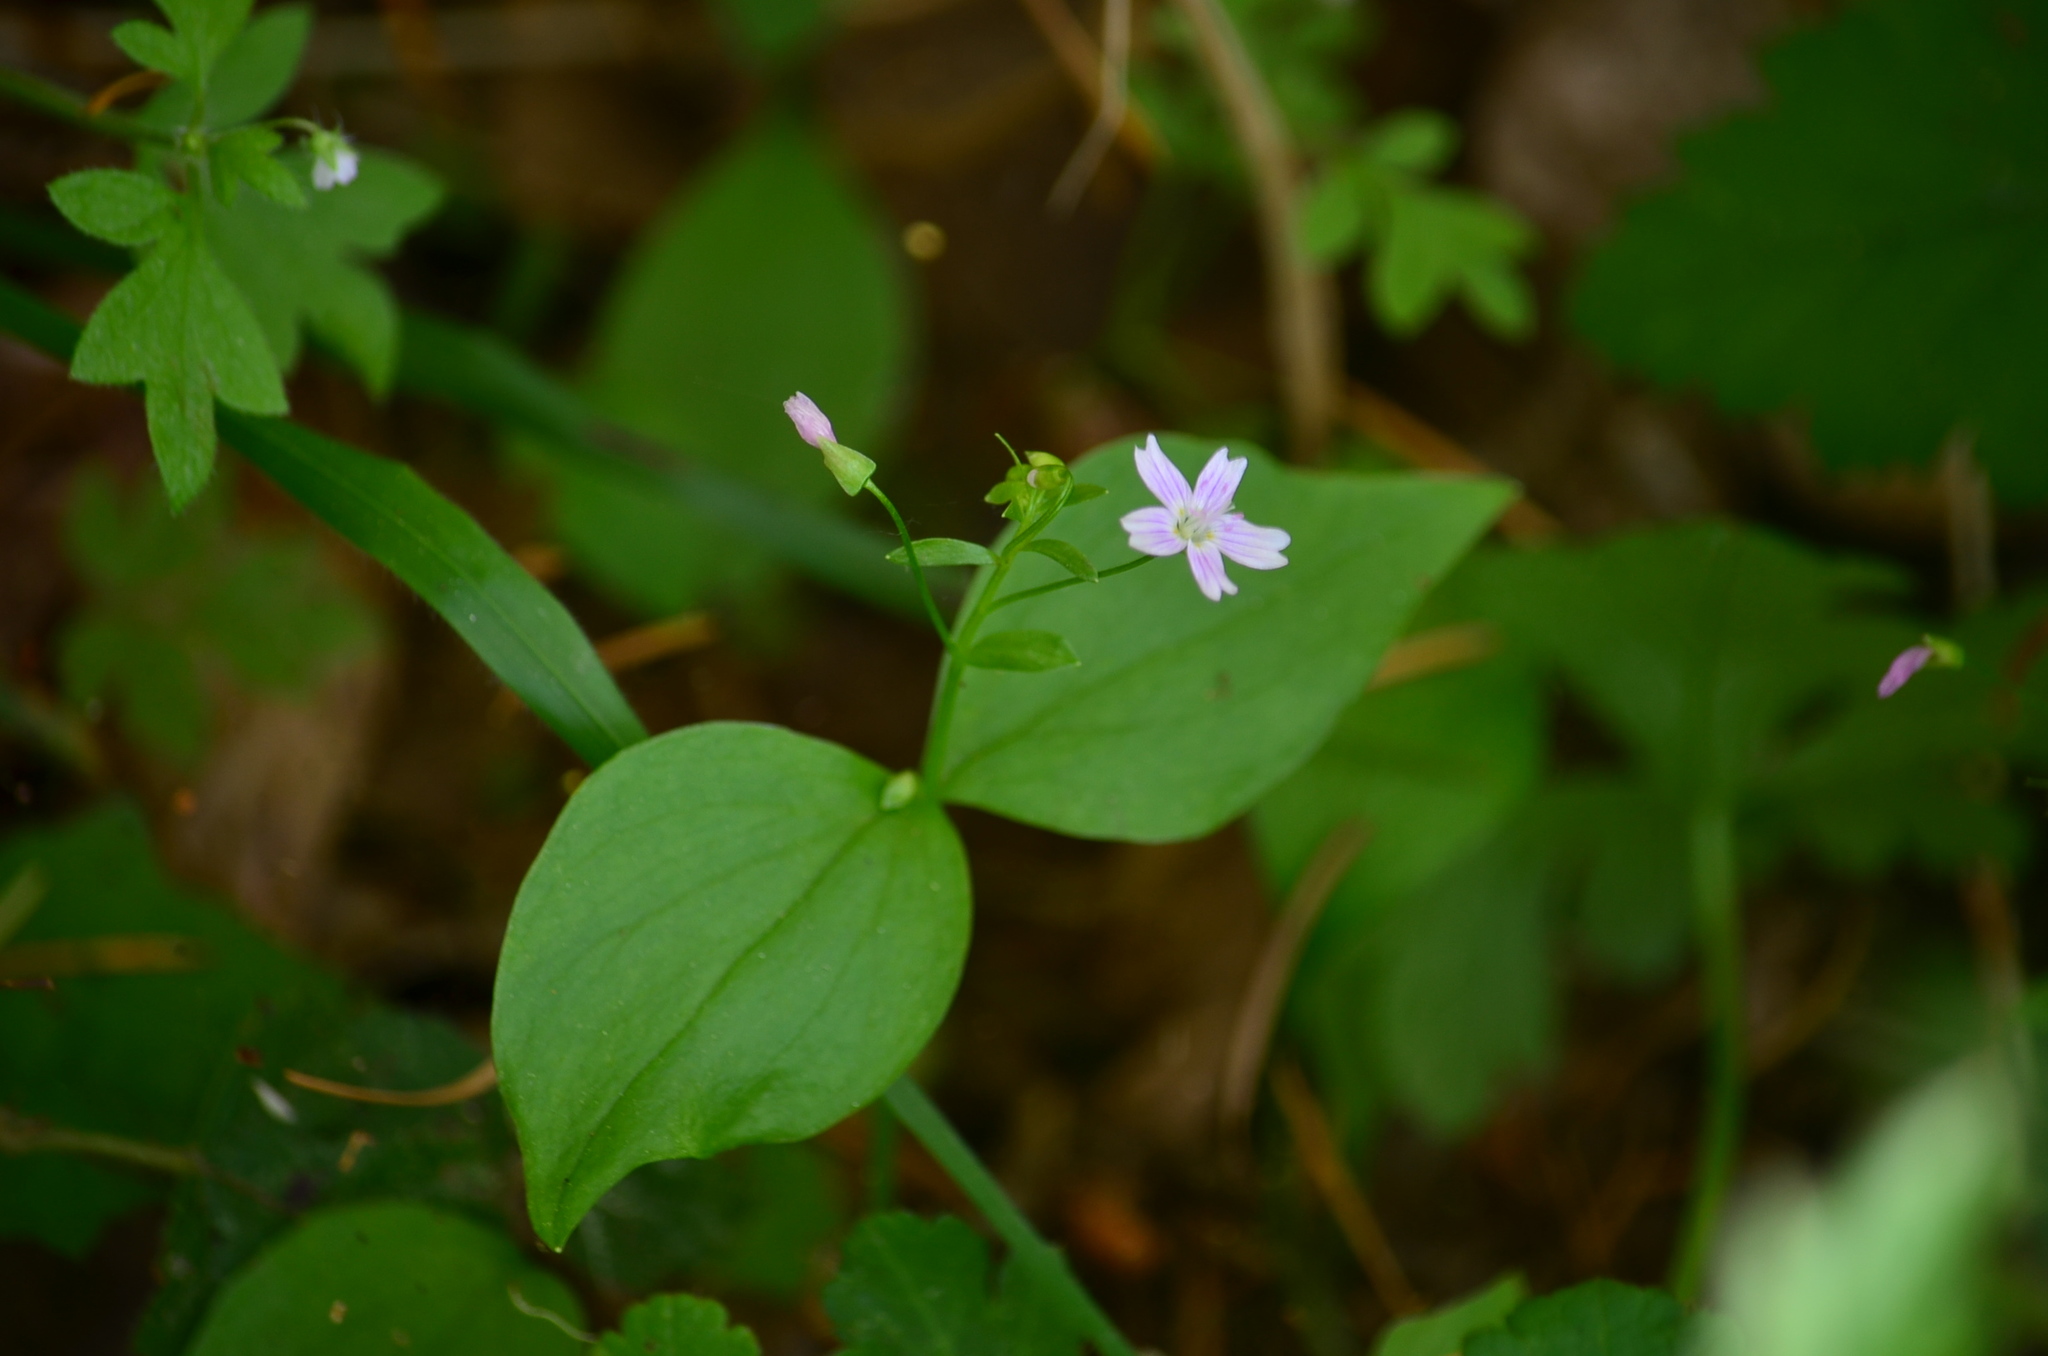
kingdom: Plantae
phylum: Tracheophyta
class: Magnoliopsida
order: Caryophyllales
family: Montiaceae
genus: Claytonia
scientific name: Claytonia sibirica
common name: Pink purslane
